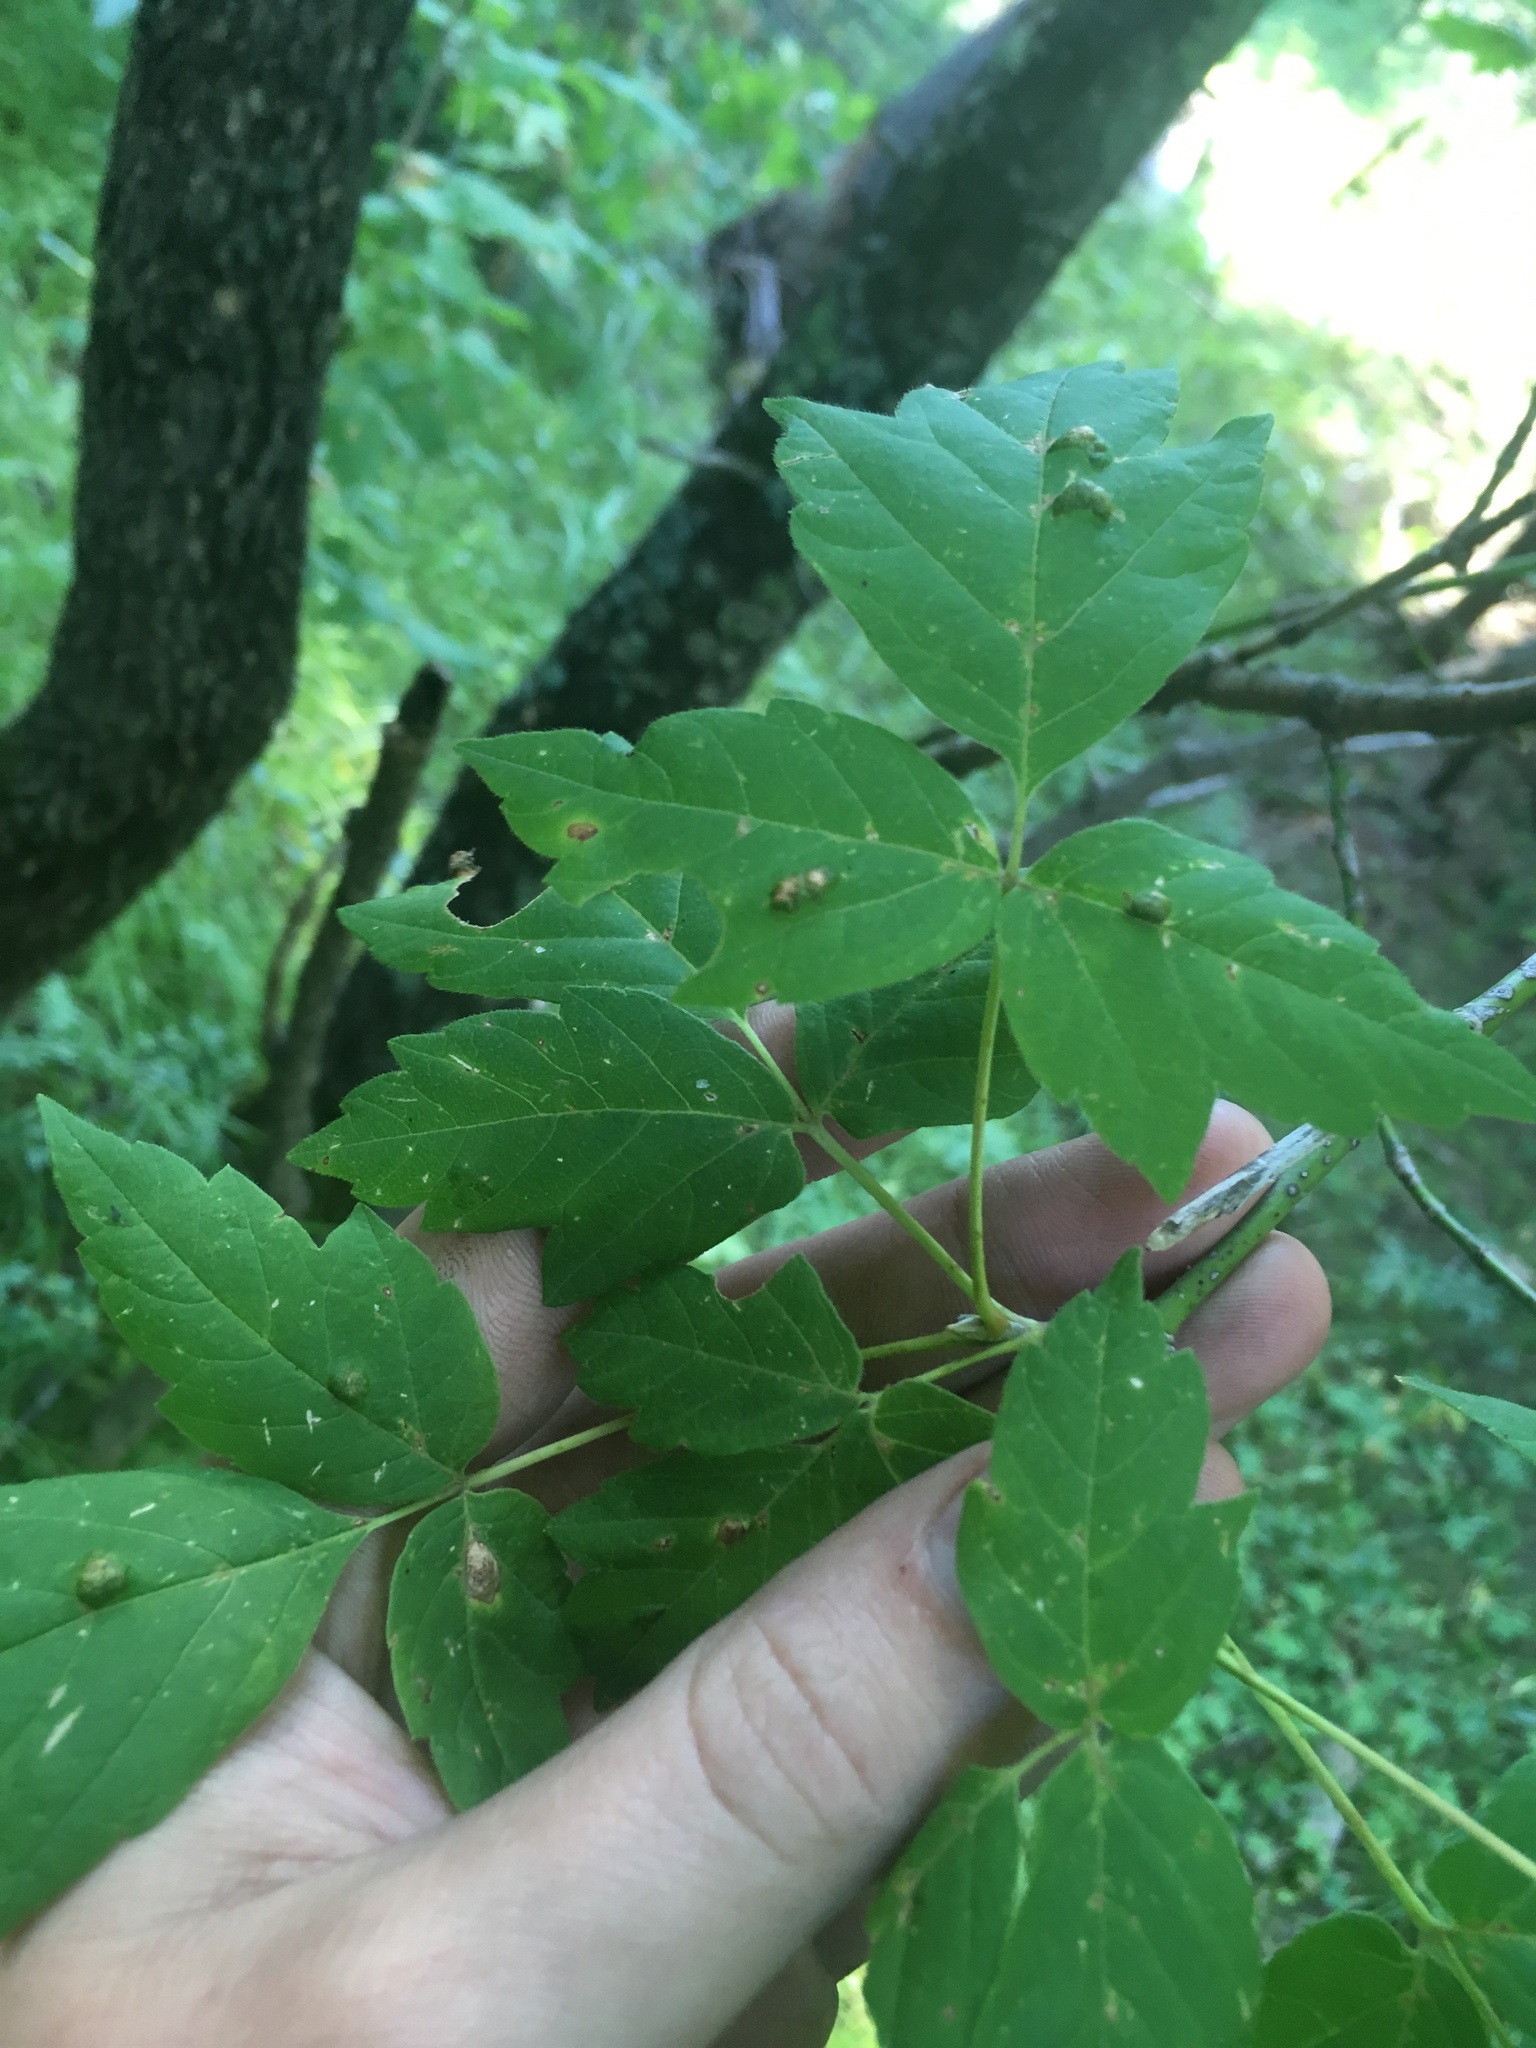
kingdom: Plantae
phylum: Tracheophyta
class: Magnoliopsida
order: Sapindales
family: Sapindaceae
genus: Acer
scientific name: Acer negundo
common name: Ashleaf maple
